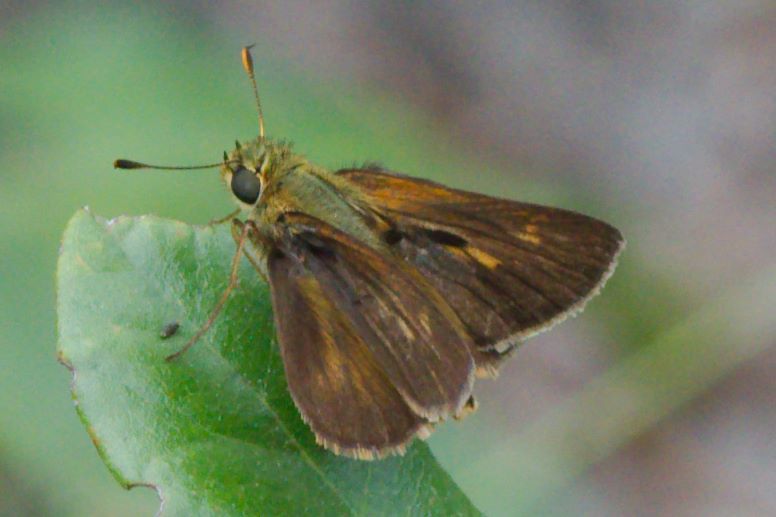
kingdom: Animalia
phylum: Arthropoda
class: Insecta
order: Lepidoptera
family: Hesperiidae
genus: Polites
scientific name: Polites egeremet
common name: Northern broken-dash
